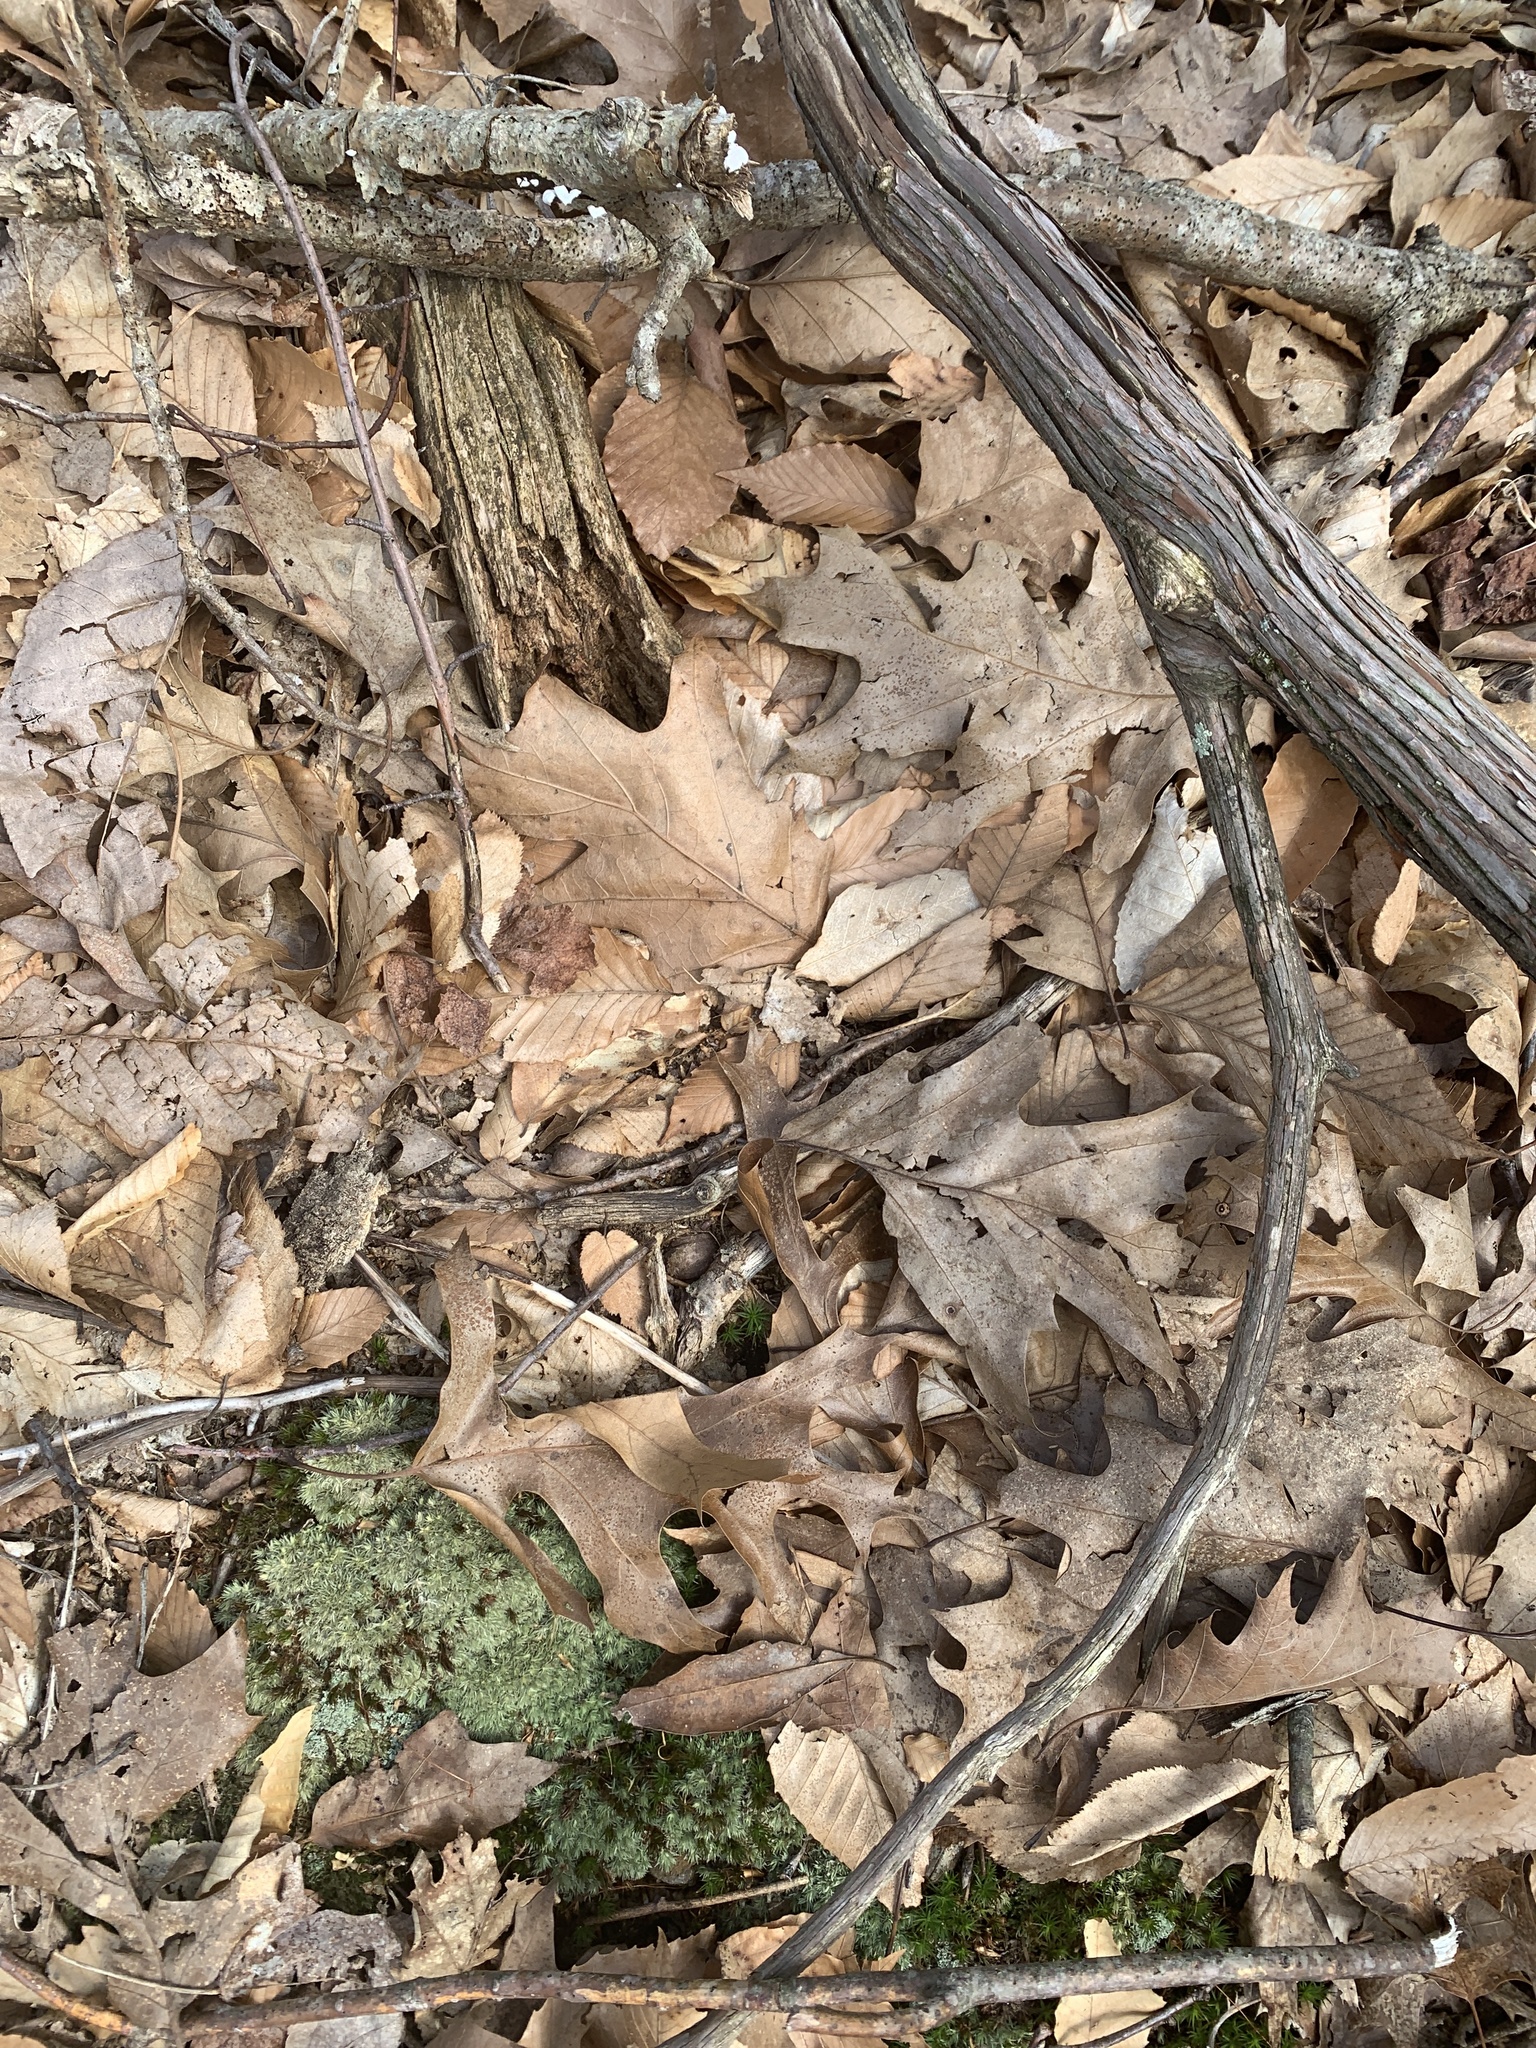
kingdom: Plantae
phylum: Tracheophyta
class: Magnoliopsida
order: Fagales
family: Fagaceae
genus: Quercus
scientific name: Quercus rubra
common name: Red oak
